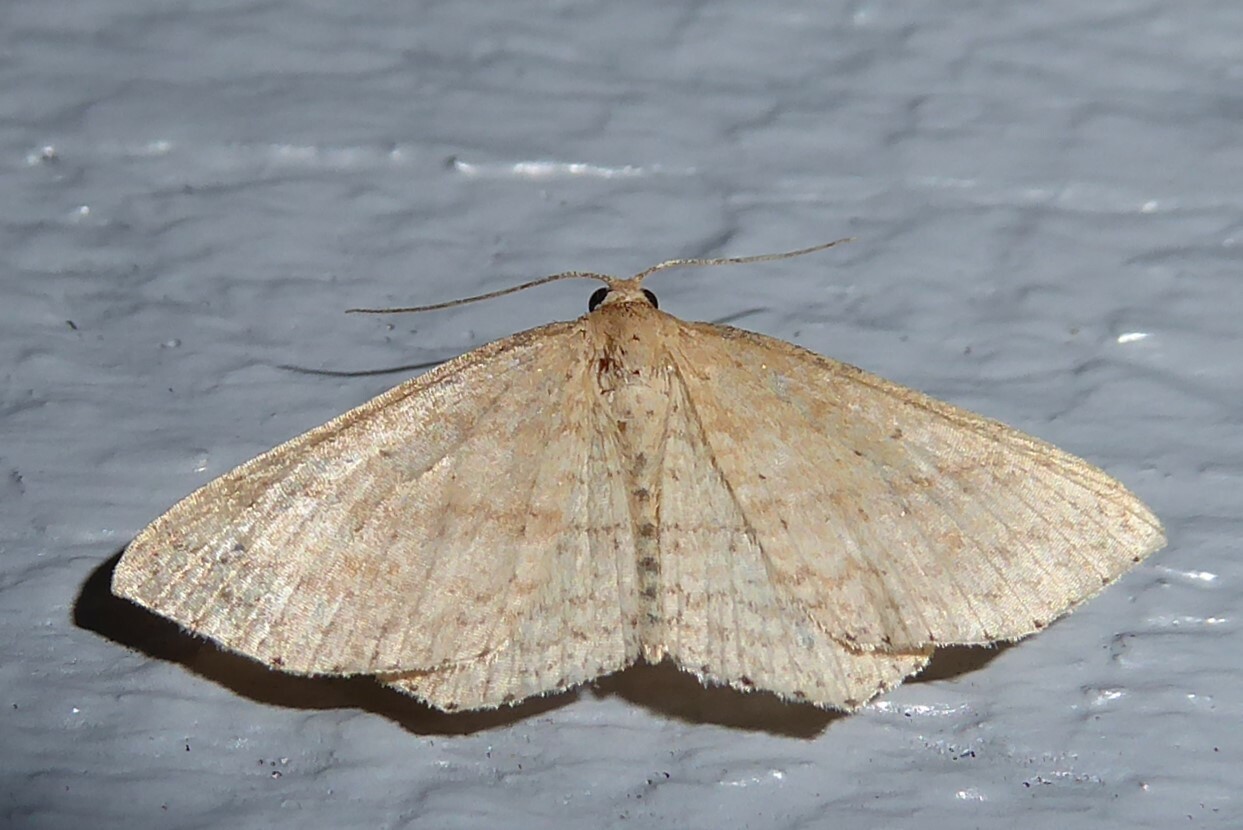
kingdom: Animalia
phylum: Arthropoda
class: Insecta
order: Lepidoptera
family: Geometridae
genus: Epicyme
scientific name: Epicyme rubropunctaria
